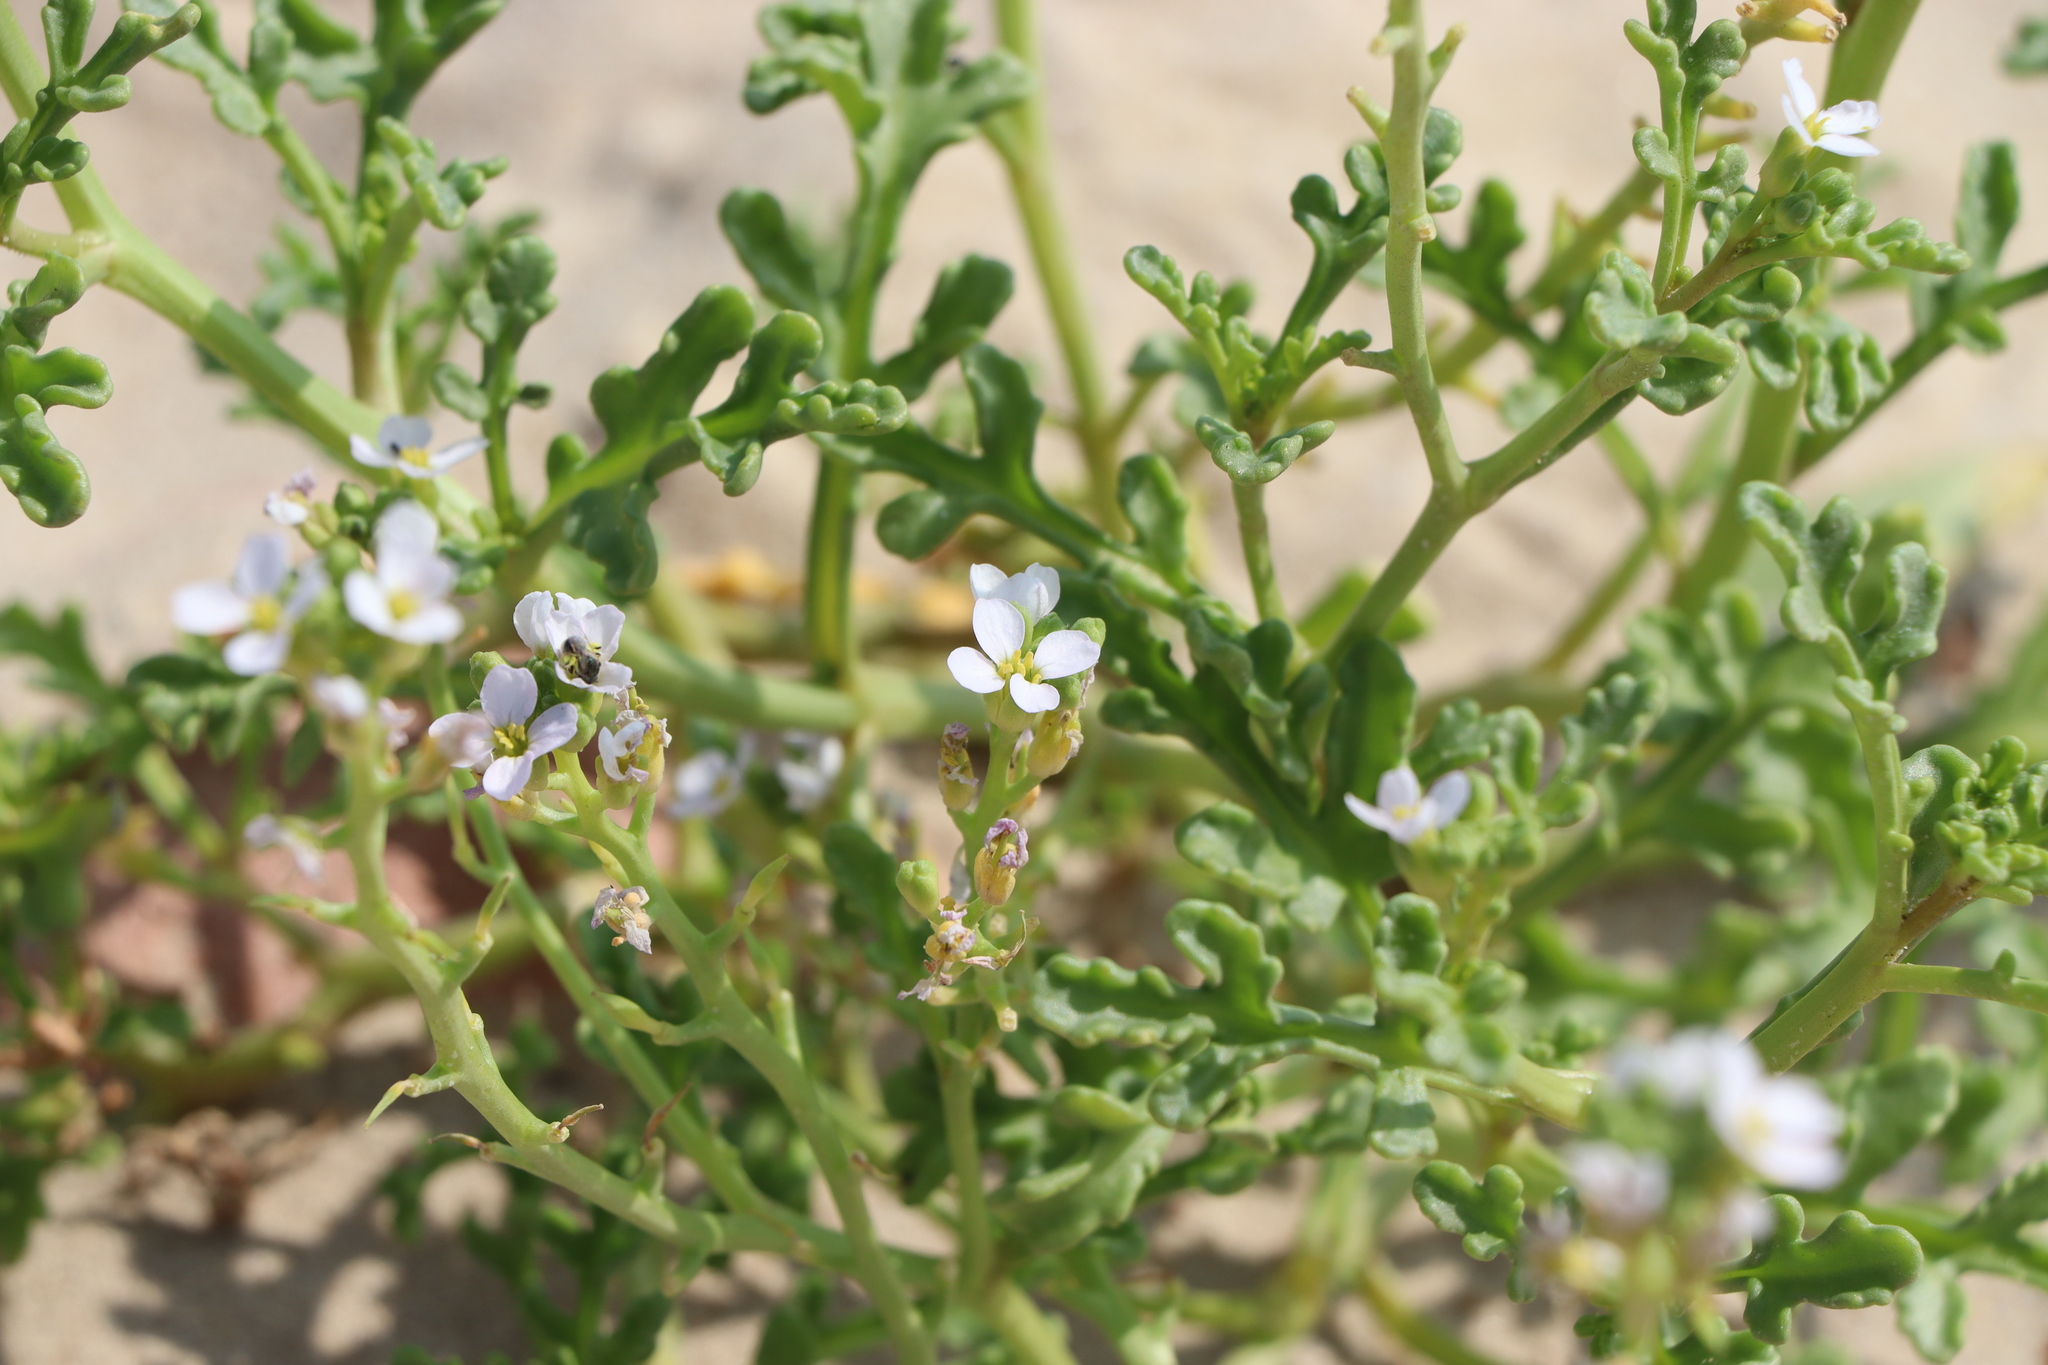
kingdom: Plantae
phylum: Tracheophyta
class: Magnoliopsida
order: Brassicales
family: Brassicaceae
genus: Cakile
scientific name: Cakile maritima
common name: Sea rocket
